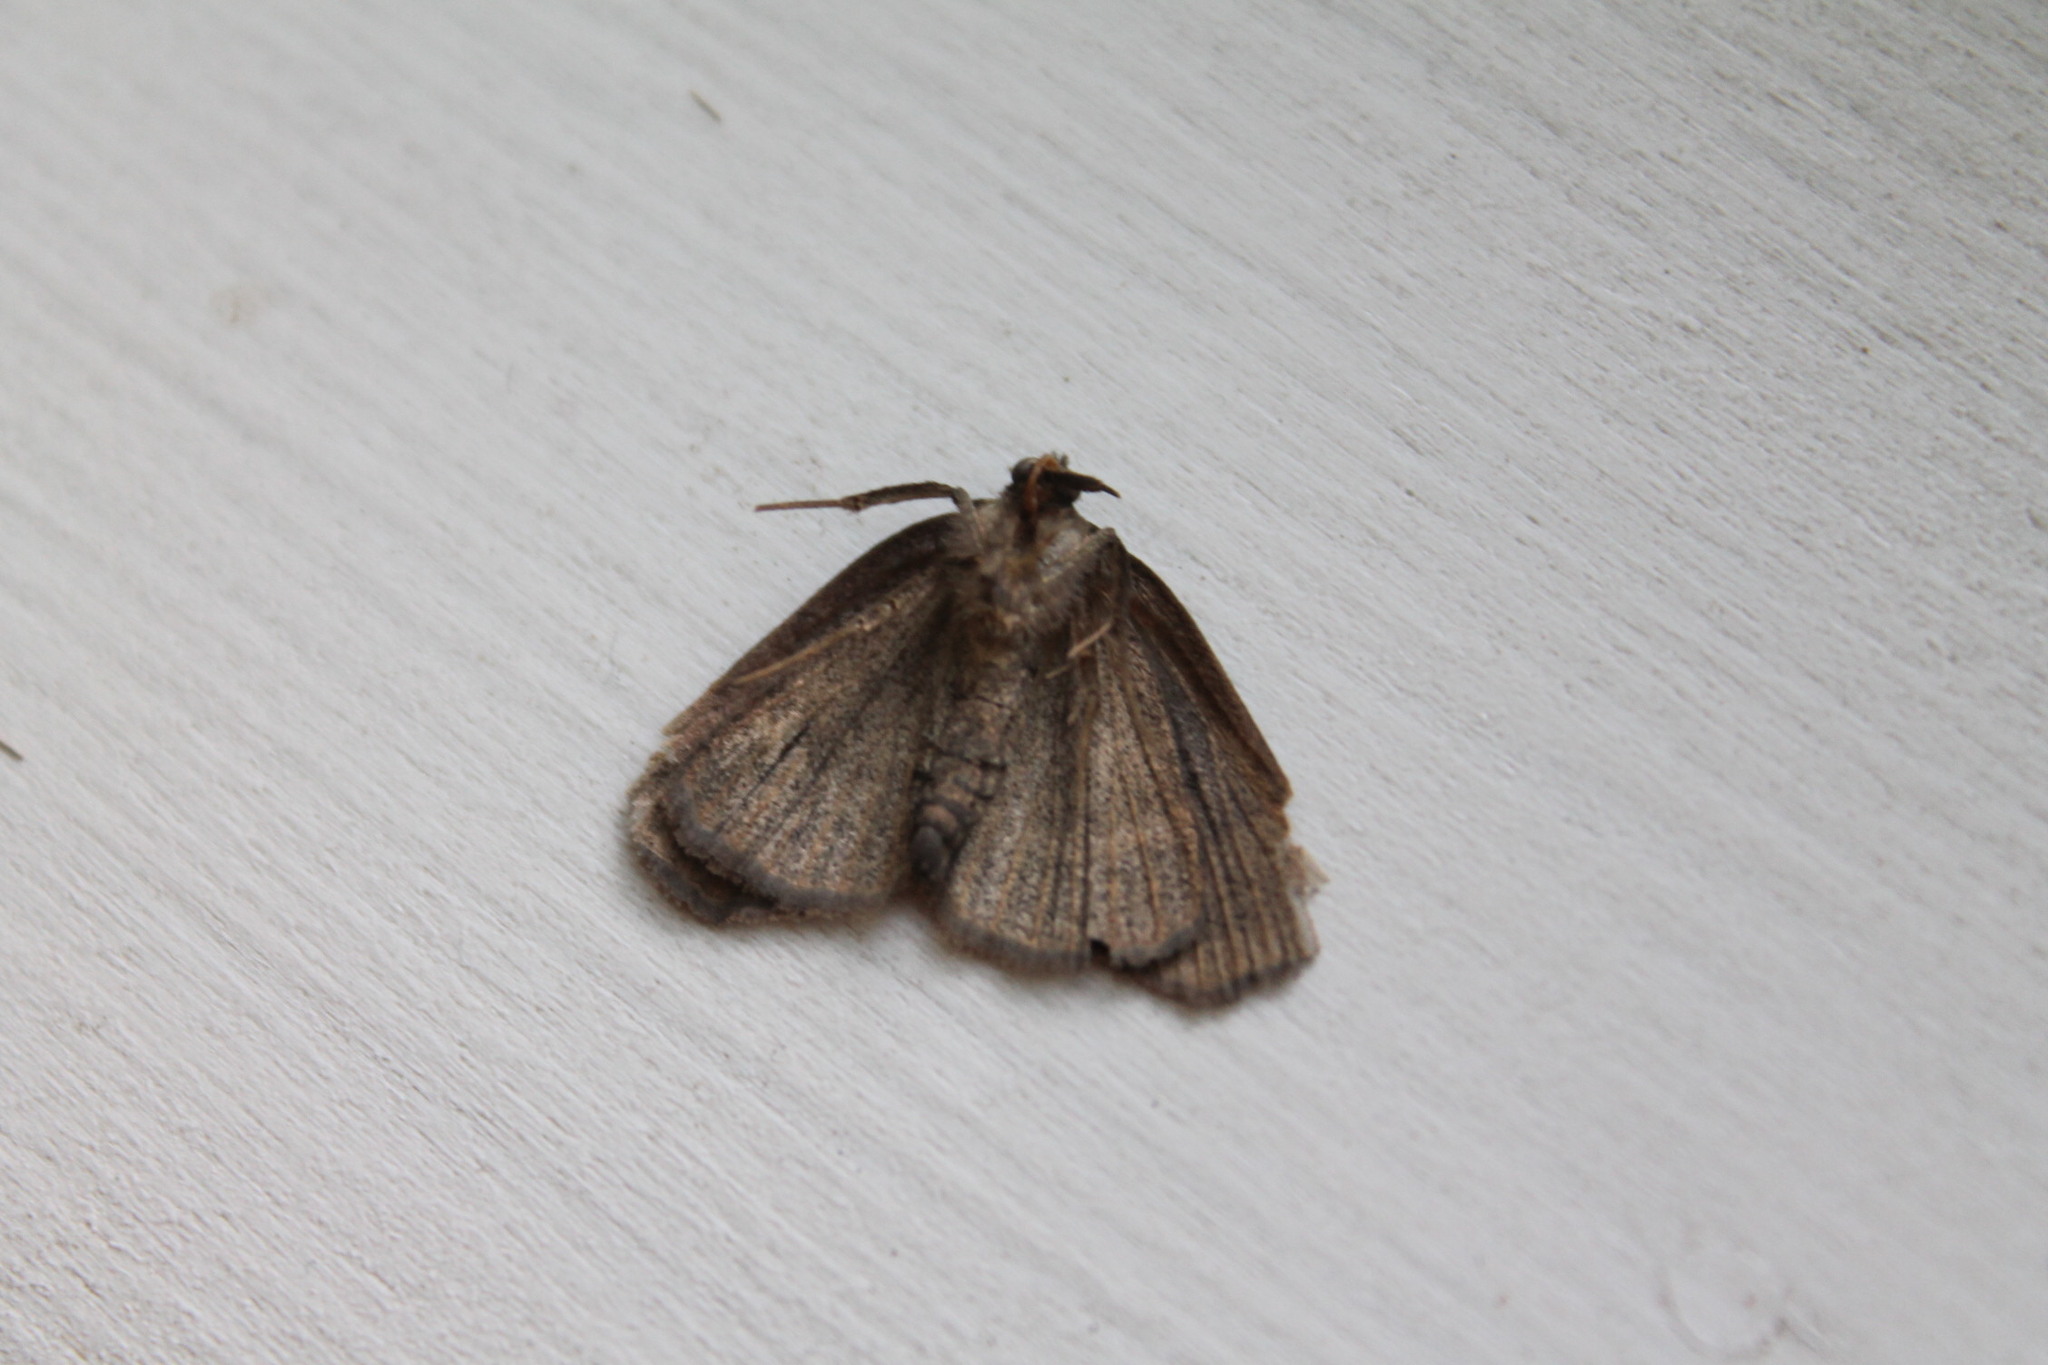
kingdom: Animalia
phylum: Arthropoda
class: Insecta
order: Lepidoptera
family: Erebidae
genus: Isogona
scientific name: Isogona tenuis
